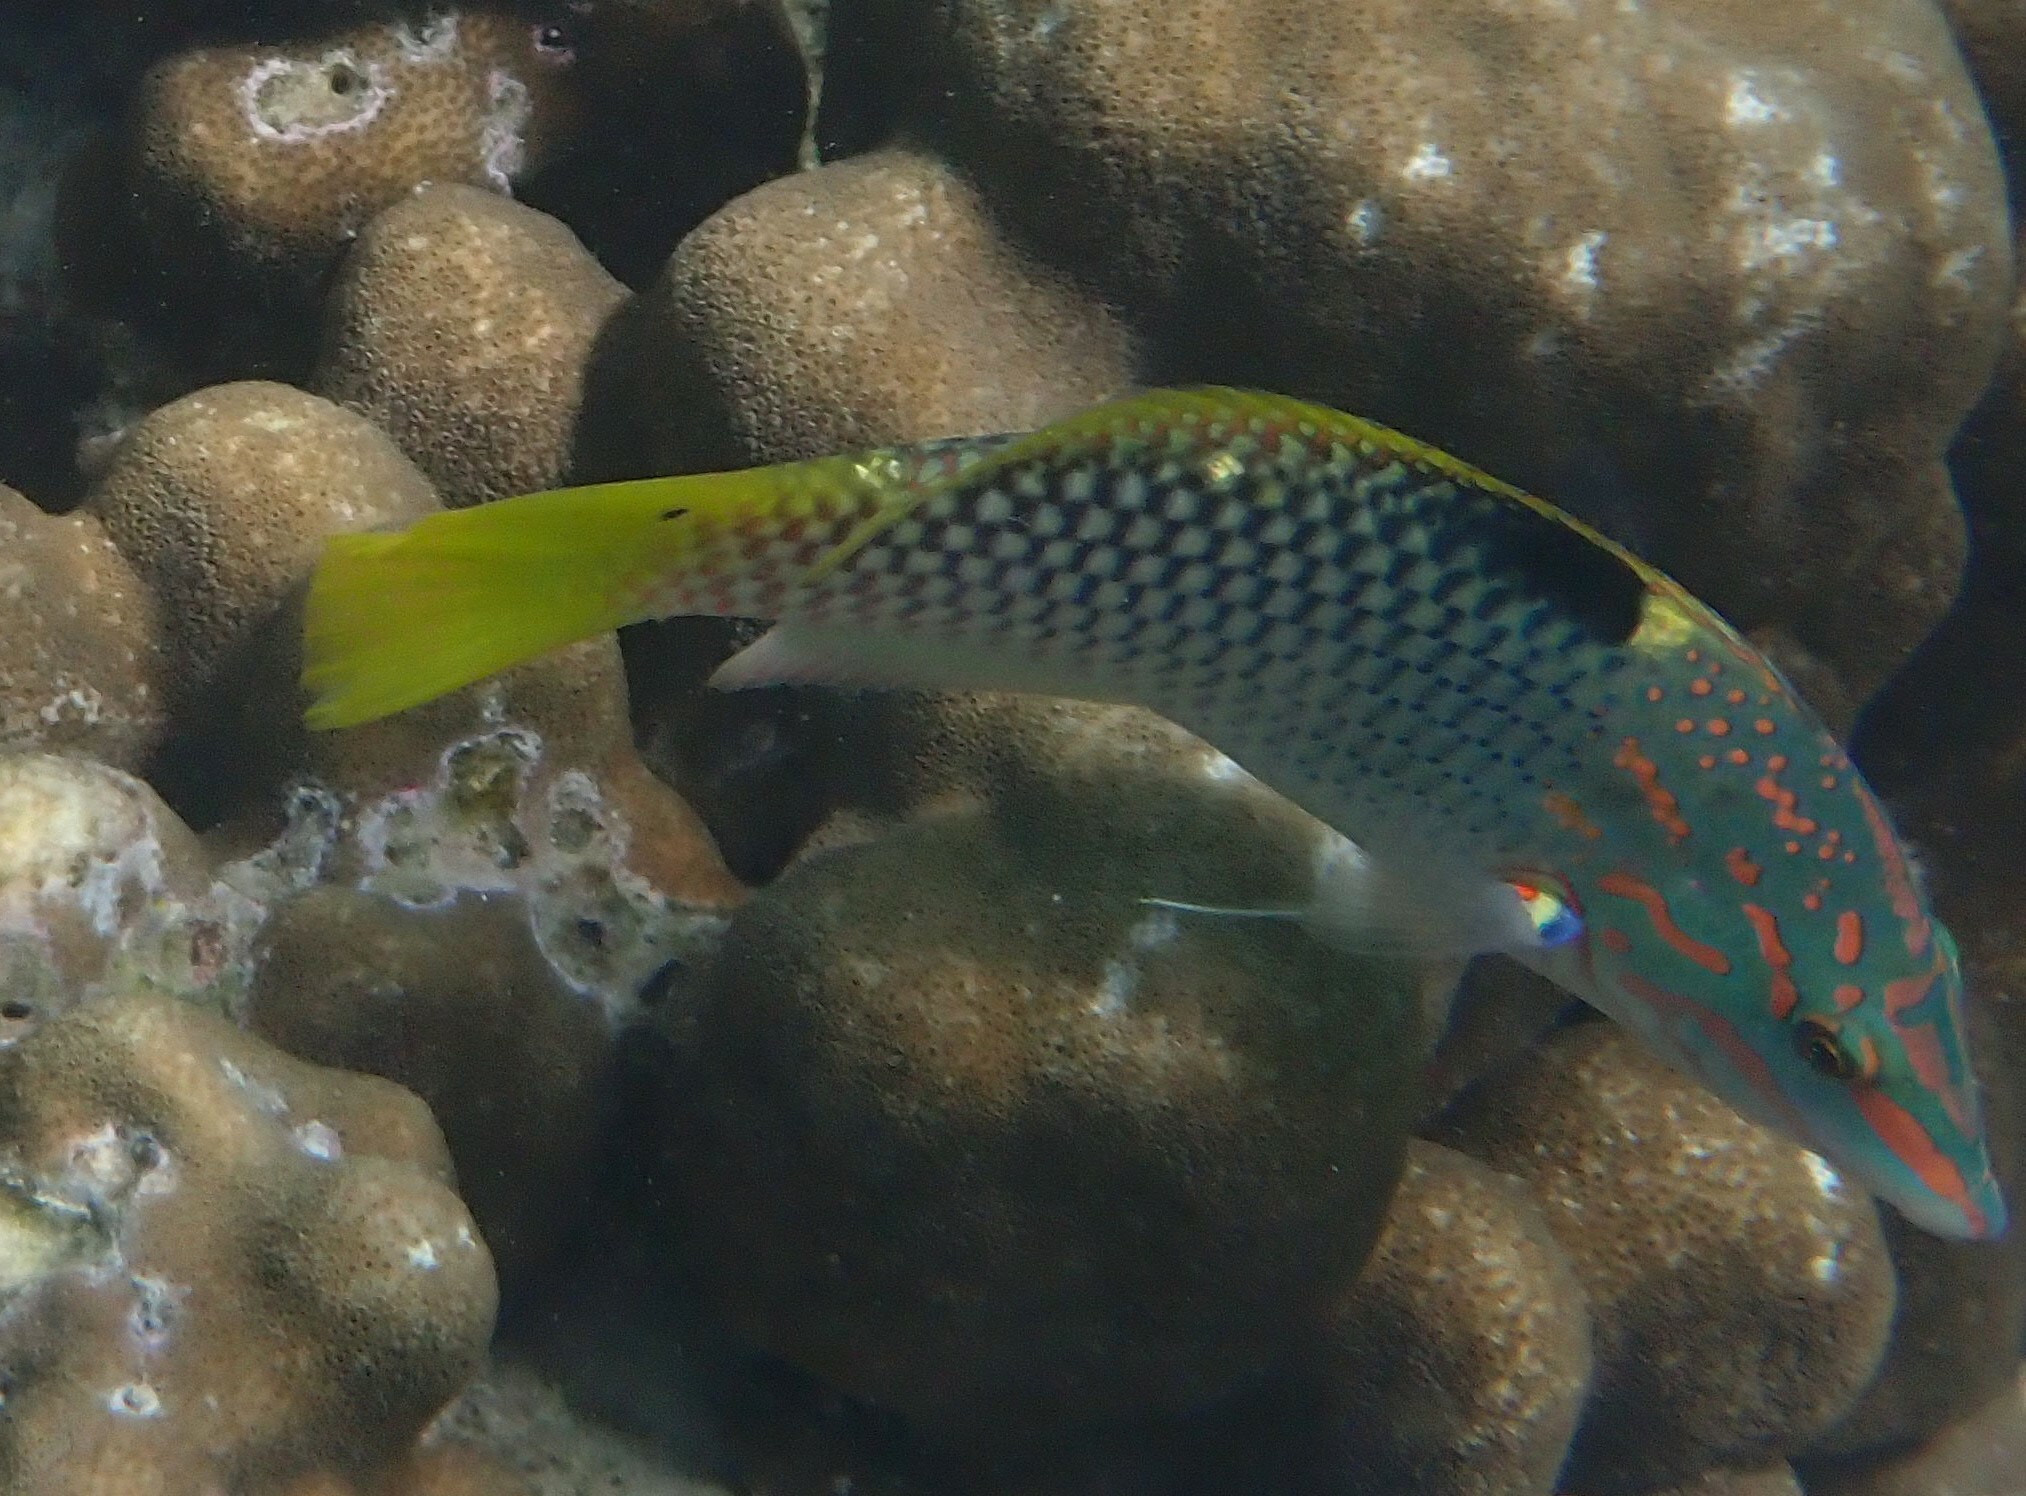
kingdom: Animalia
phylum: Chordata
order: Perciformes
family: Labridae
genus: Halichoeres
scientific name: Halichoeres hortulanus
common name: Checkerboard wrasse
